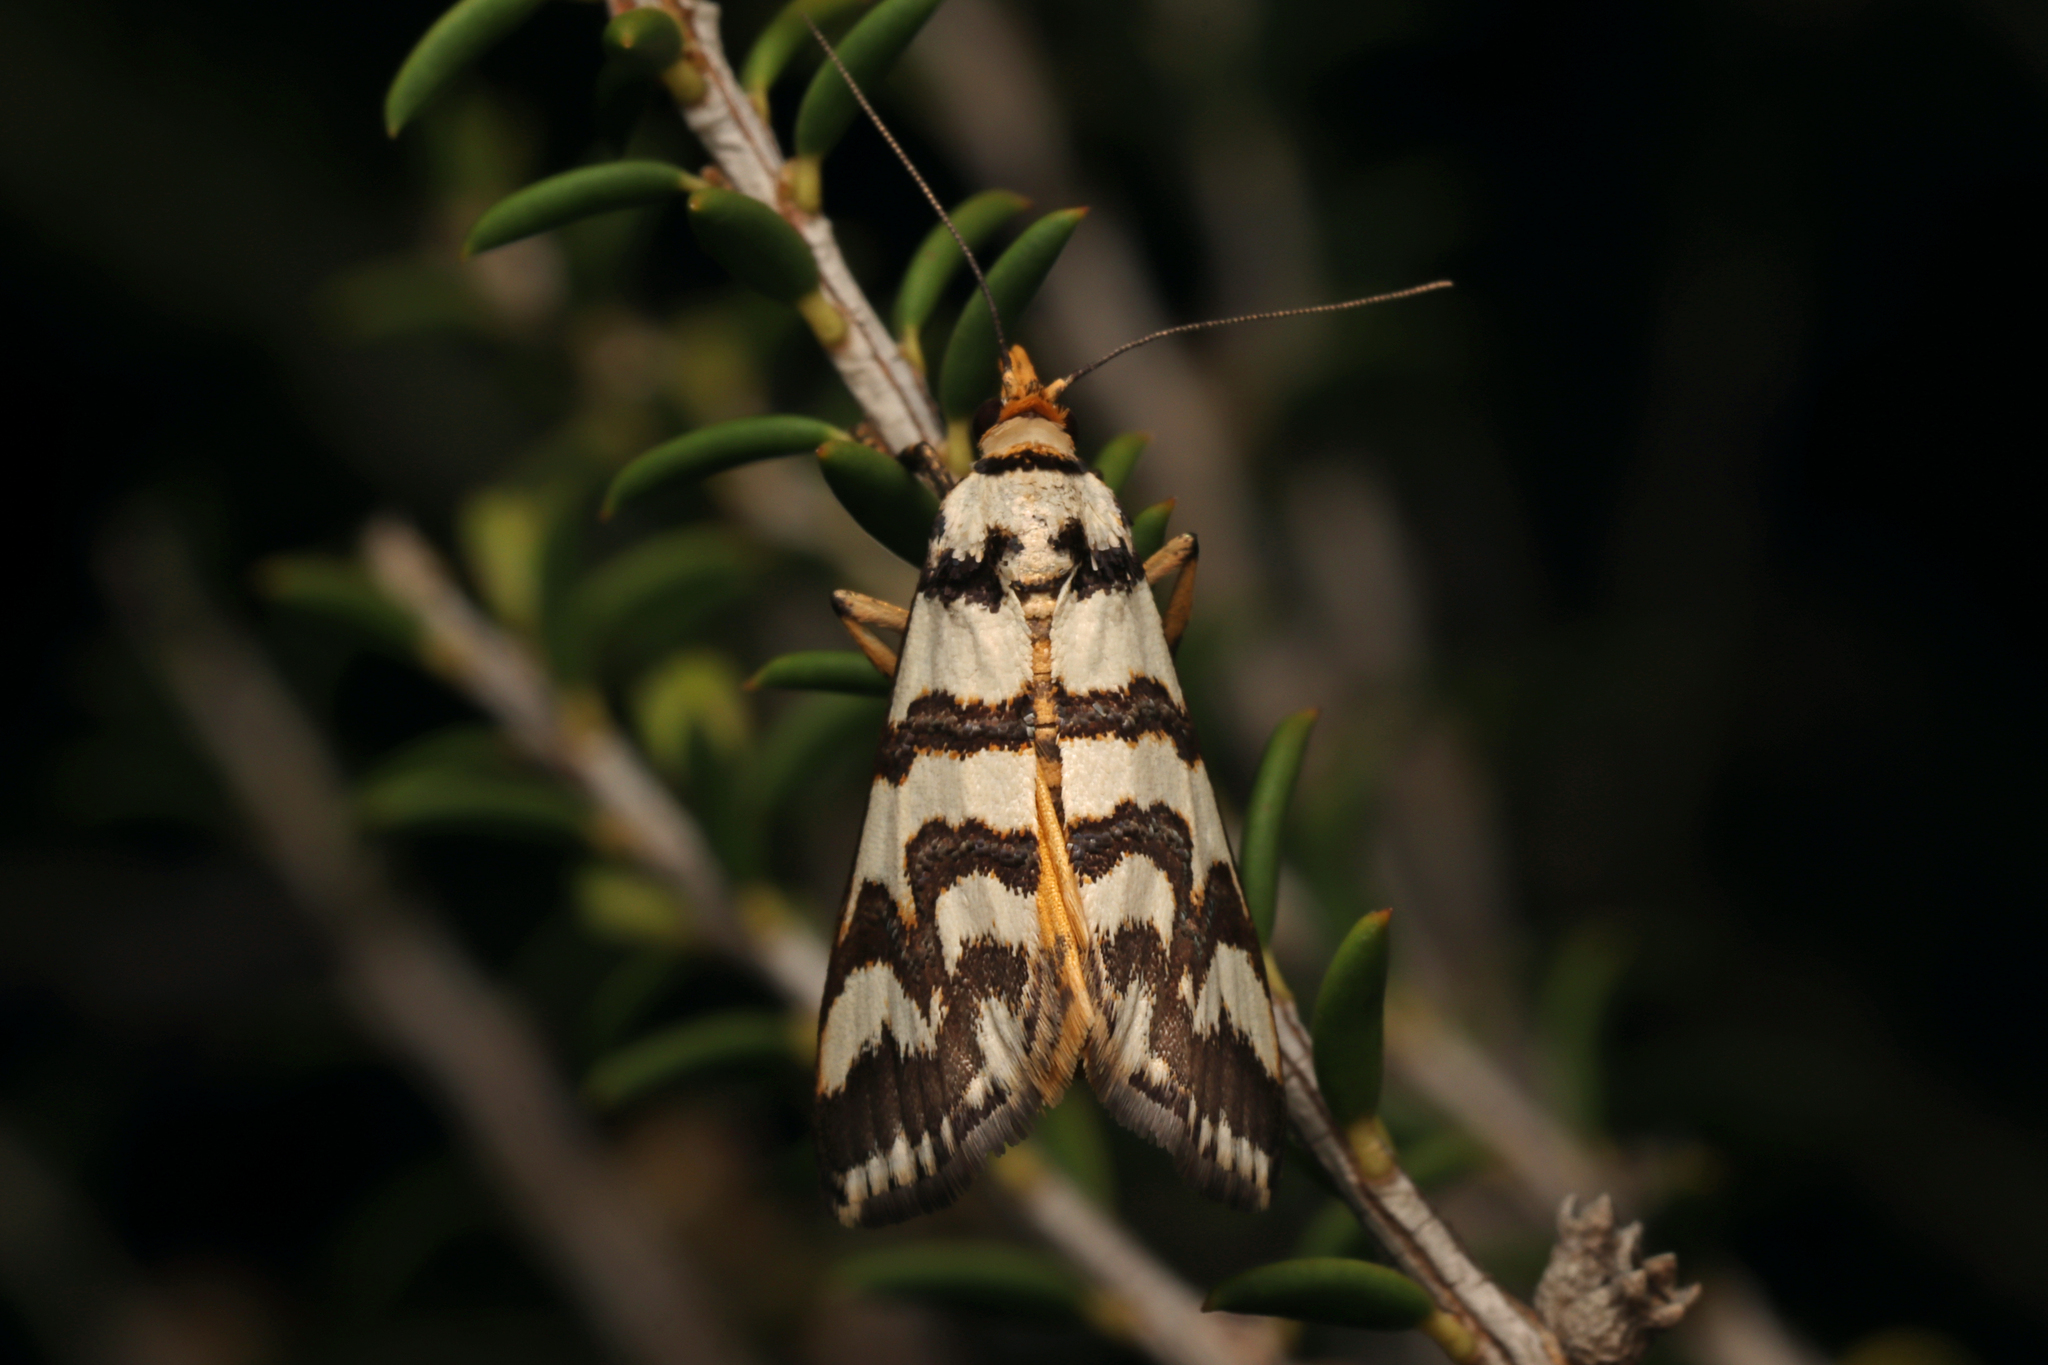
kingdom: Animalia
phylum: Arthropoda
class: Insecta
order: Lepidoptera
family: Pyralidae
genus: Hednotodes
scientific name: Hednotodes callichroa
